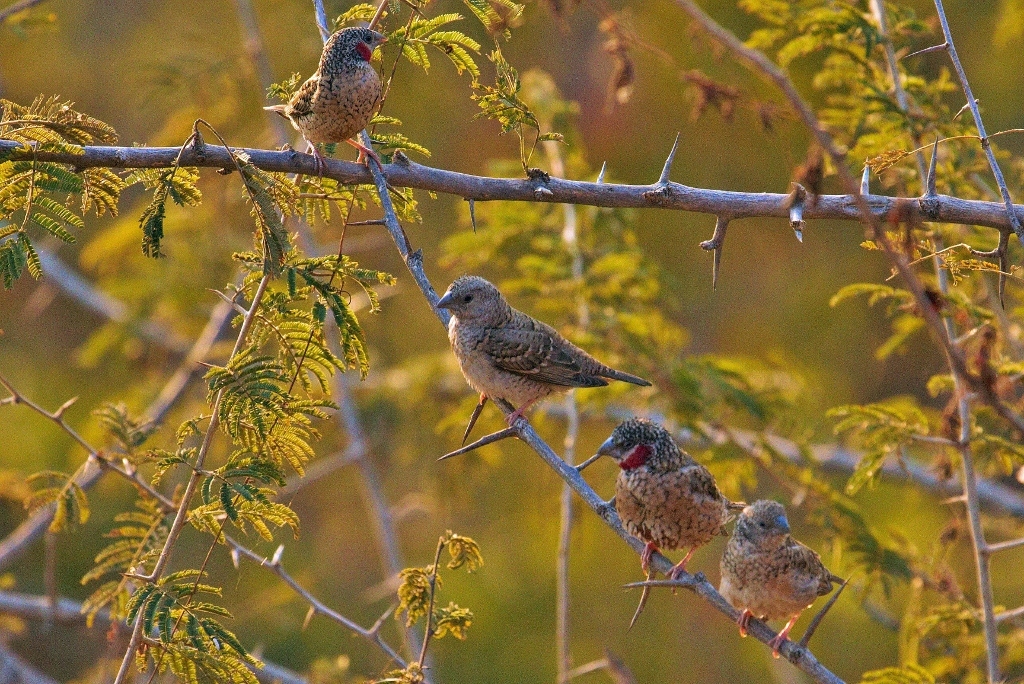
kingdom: Animalia
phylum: Chordata
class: Aves
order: Passeriformes
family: Estrildidae
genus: Amadina
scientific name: Amadina fasciata
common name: Cut-throat finch
